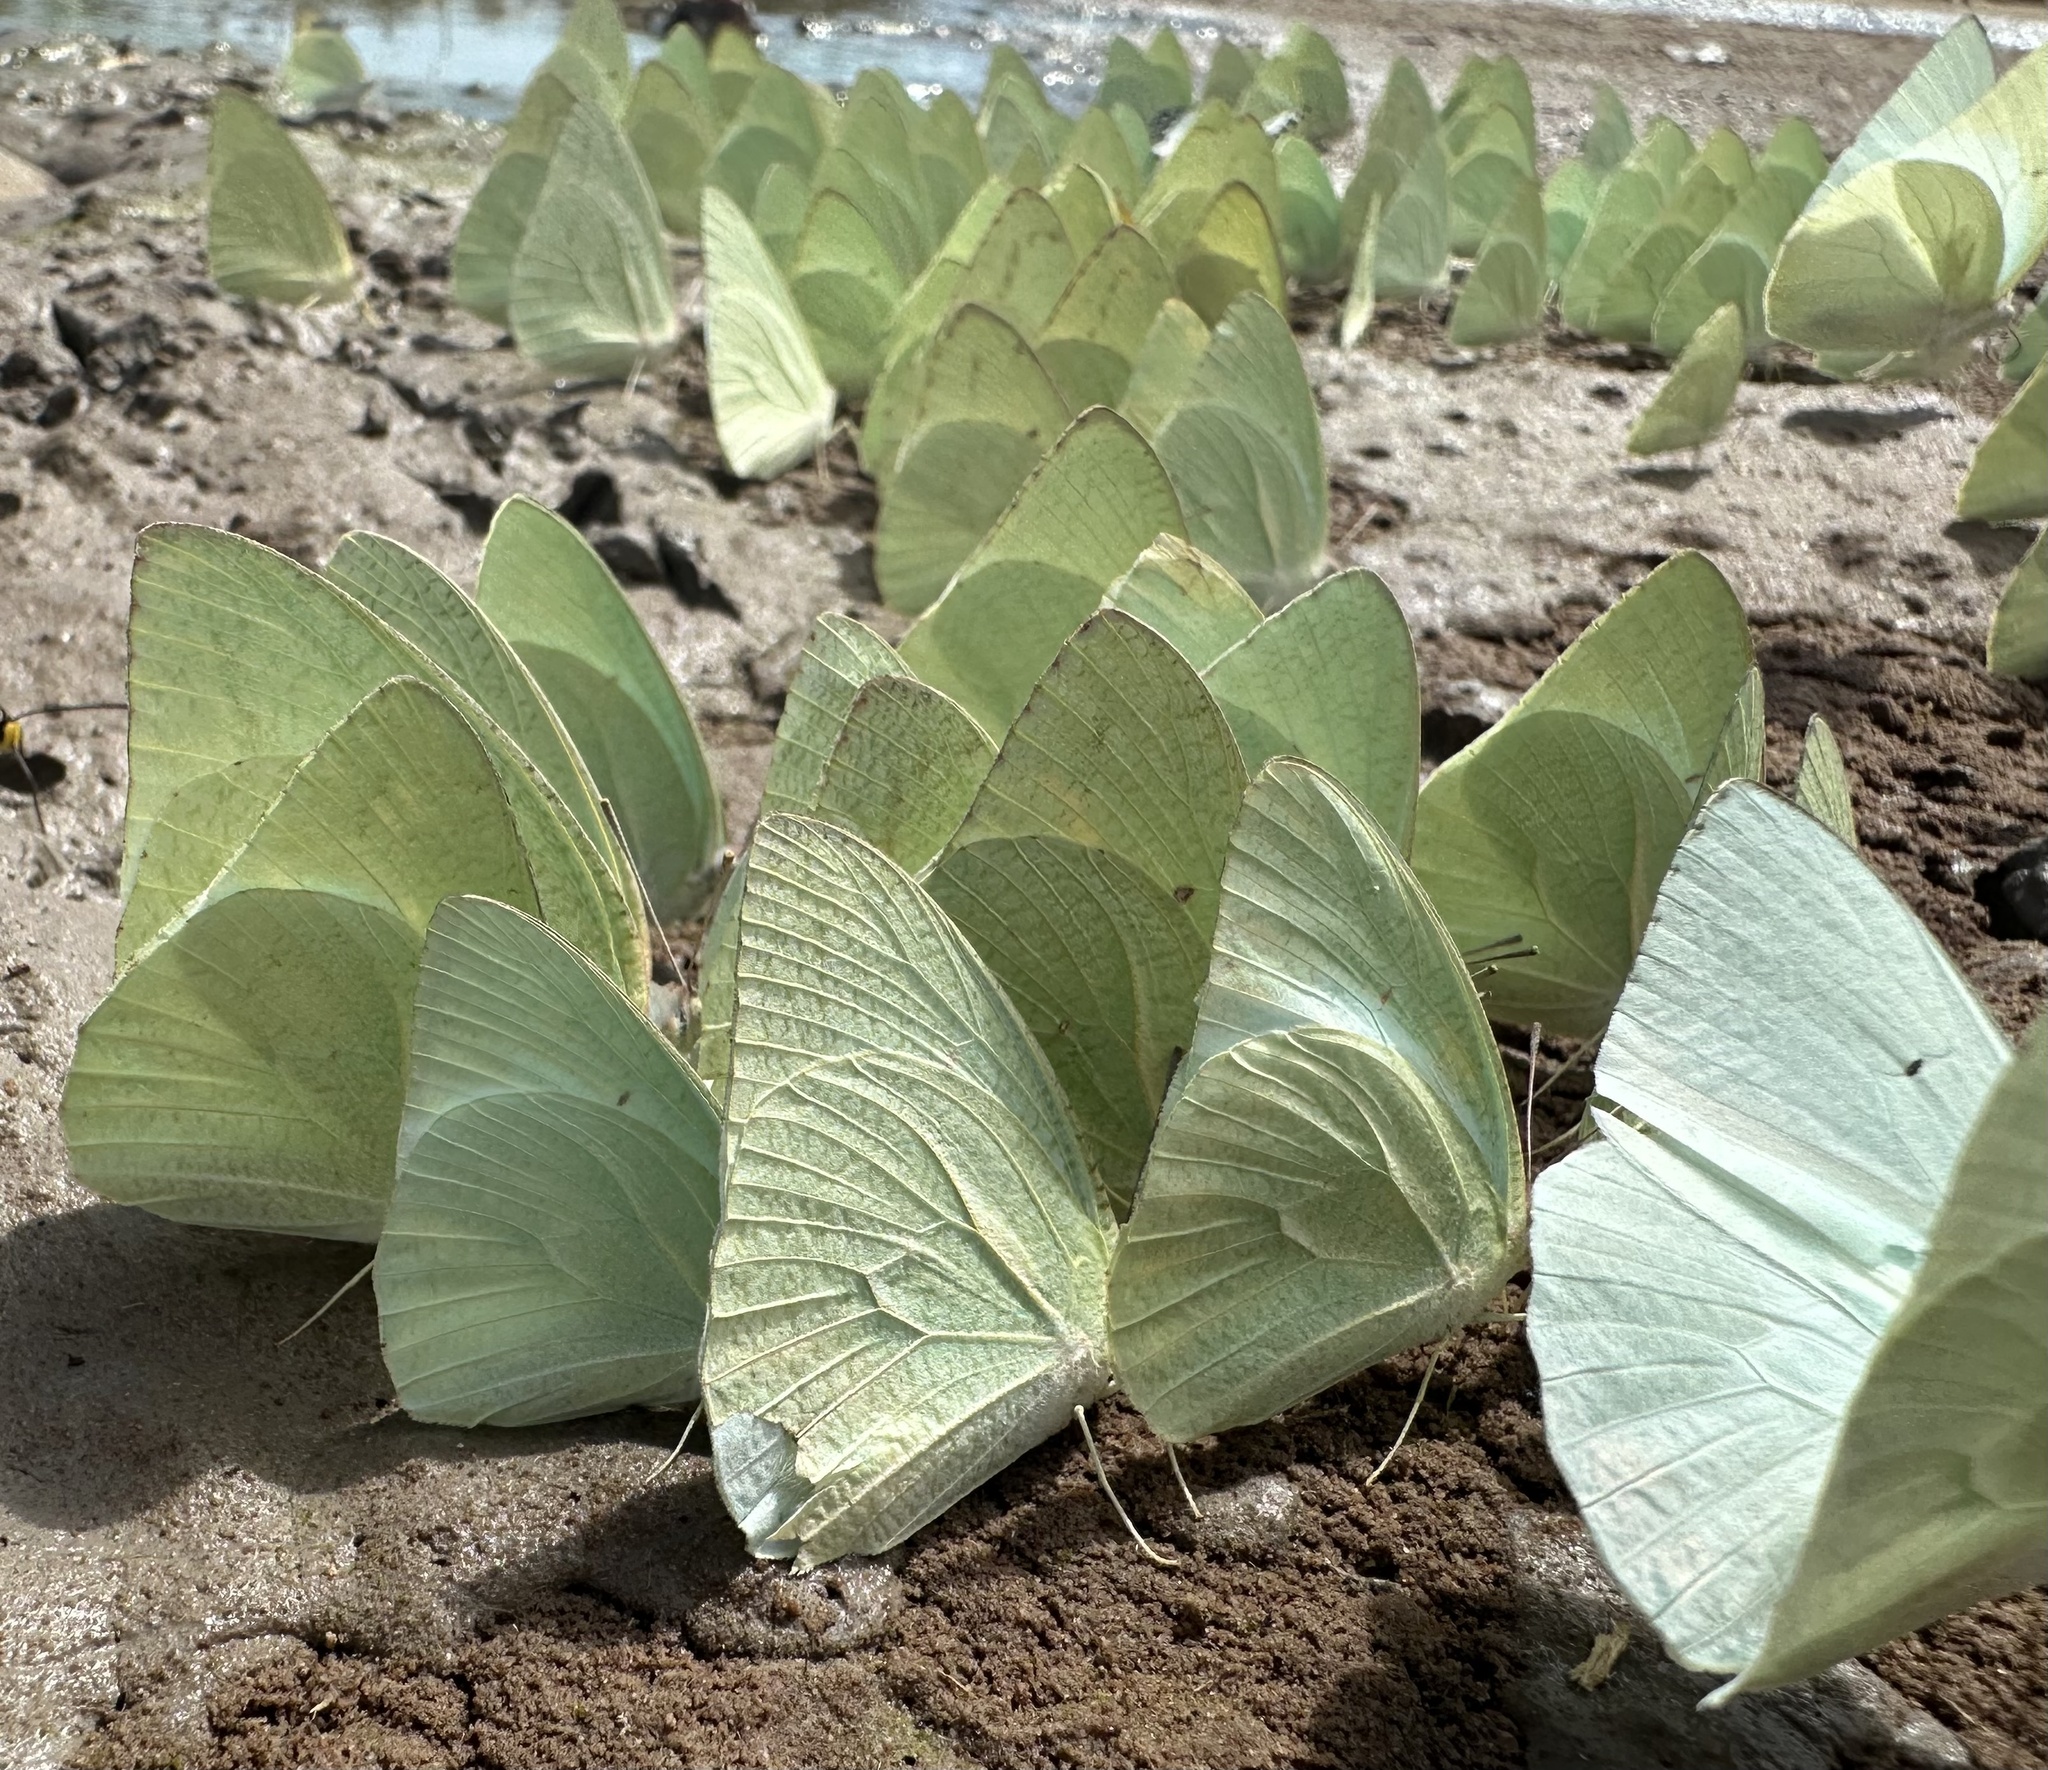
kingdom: Animalia
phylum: Arthropoda
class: Insecta
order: Lepidoptera
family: Pieridae
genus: Catopsilia
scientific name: Catopsilia florella
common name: African migrant
